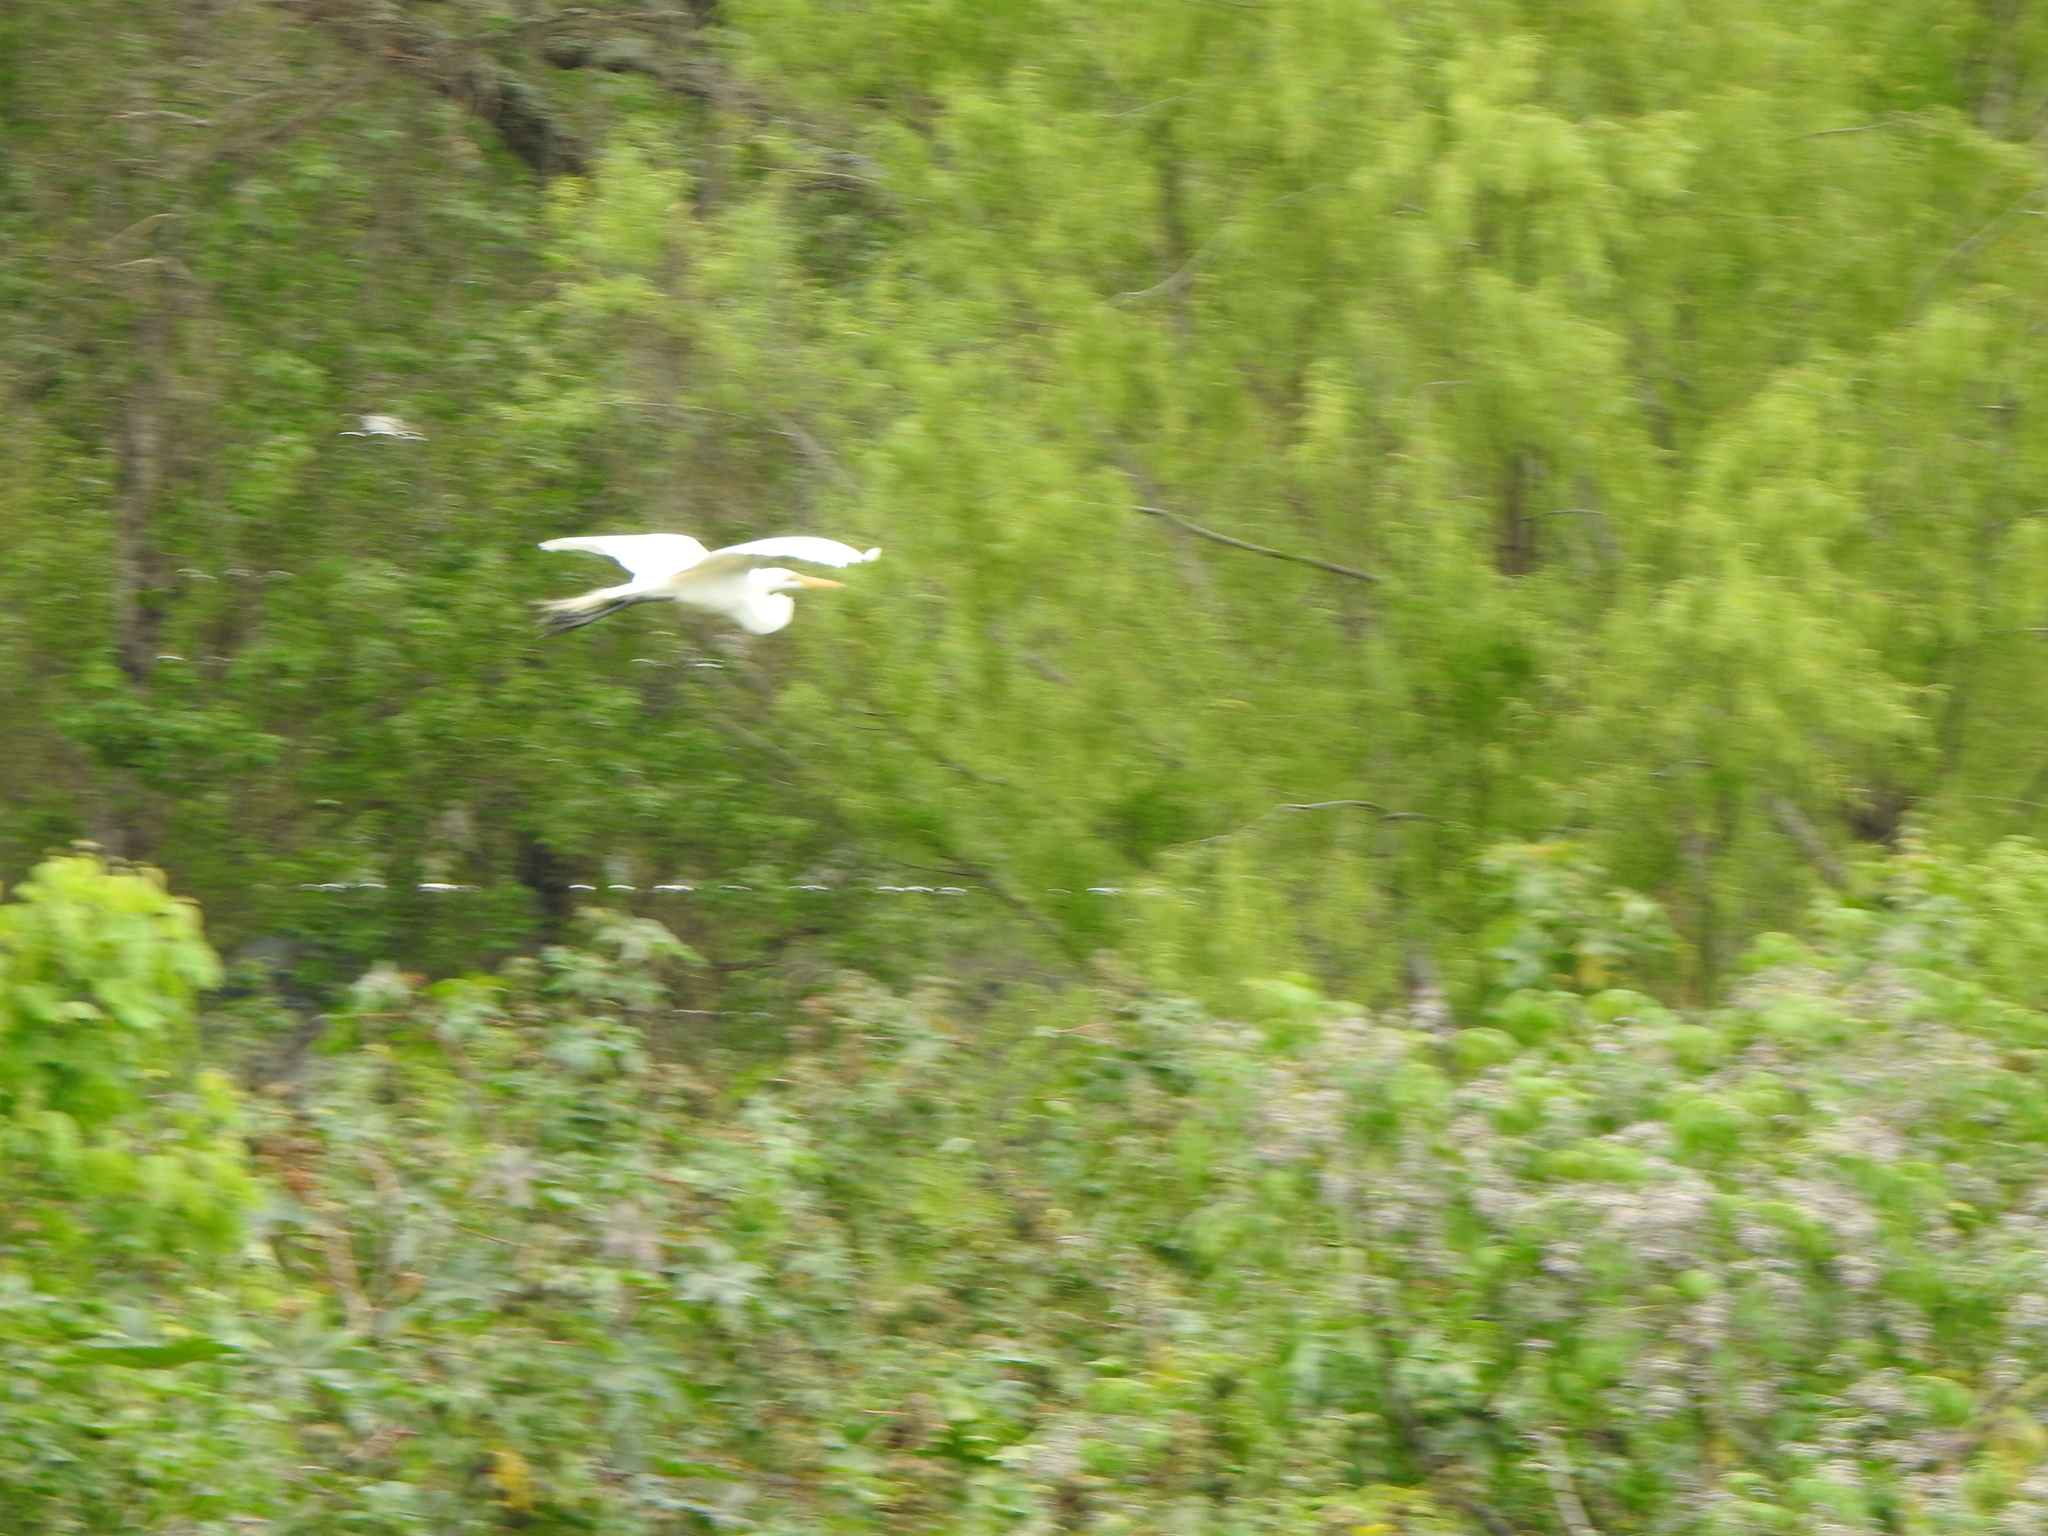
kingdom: Animalia
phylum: Chordata
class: Aves
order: Pelecaniformes
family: Ardeidae
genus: Ardea
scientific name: Ardea alba
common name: Great egret
